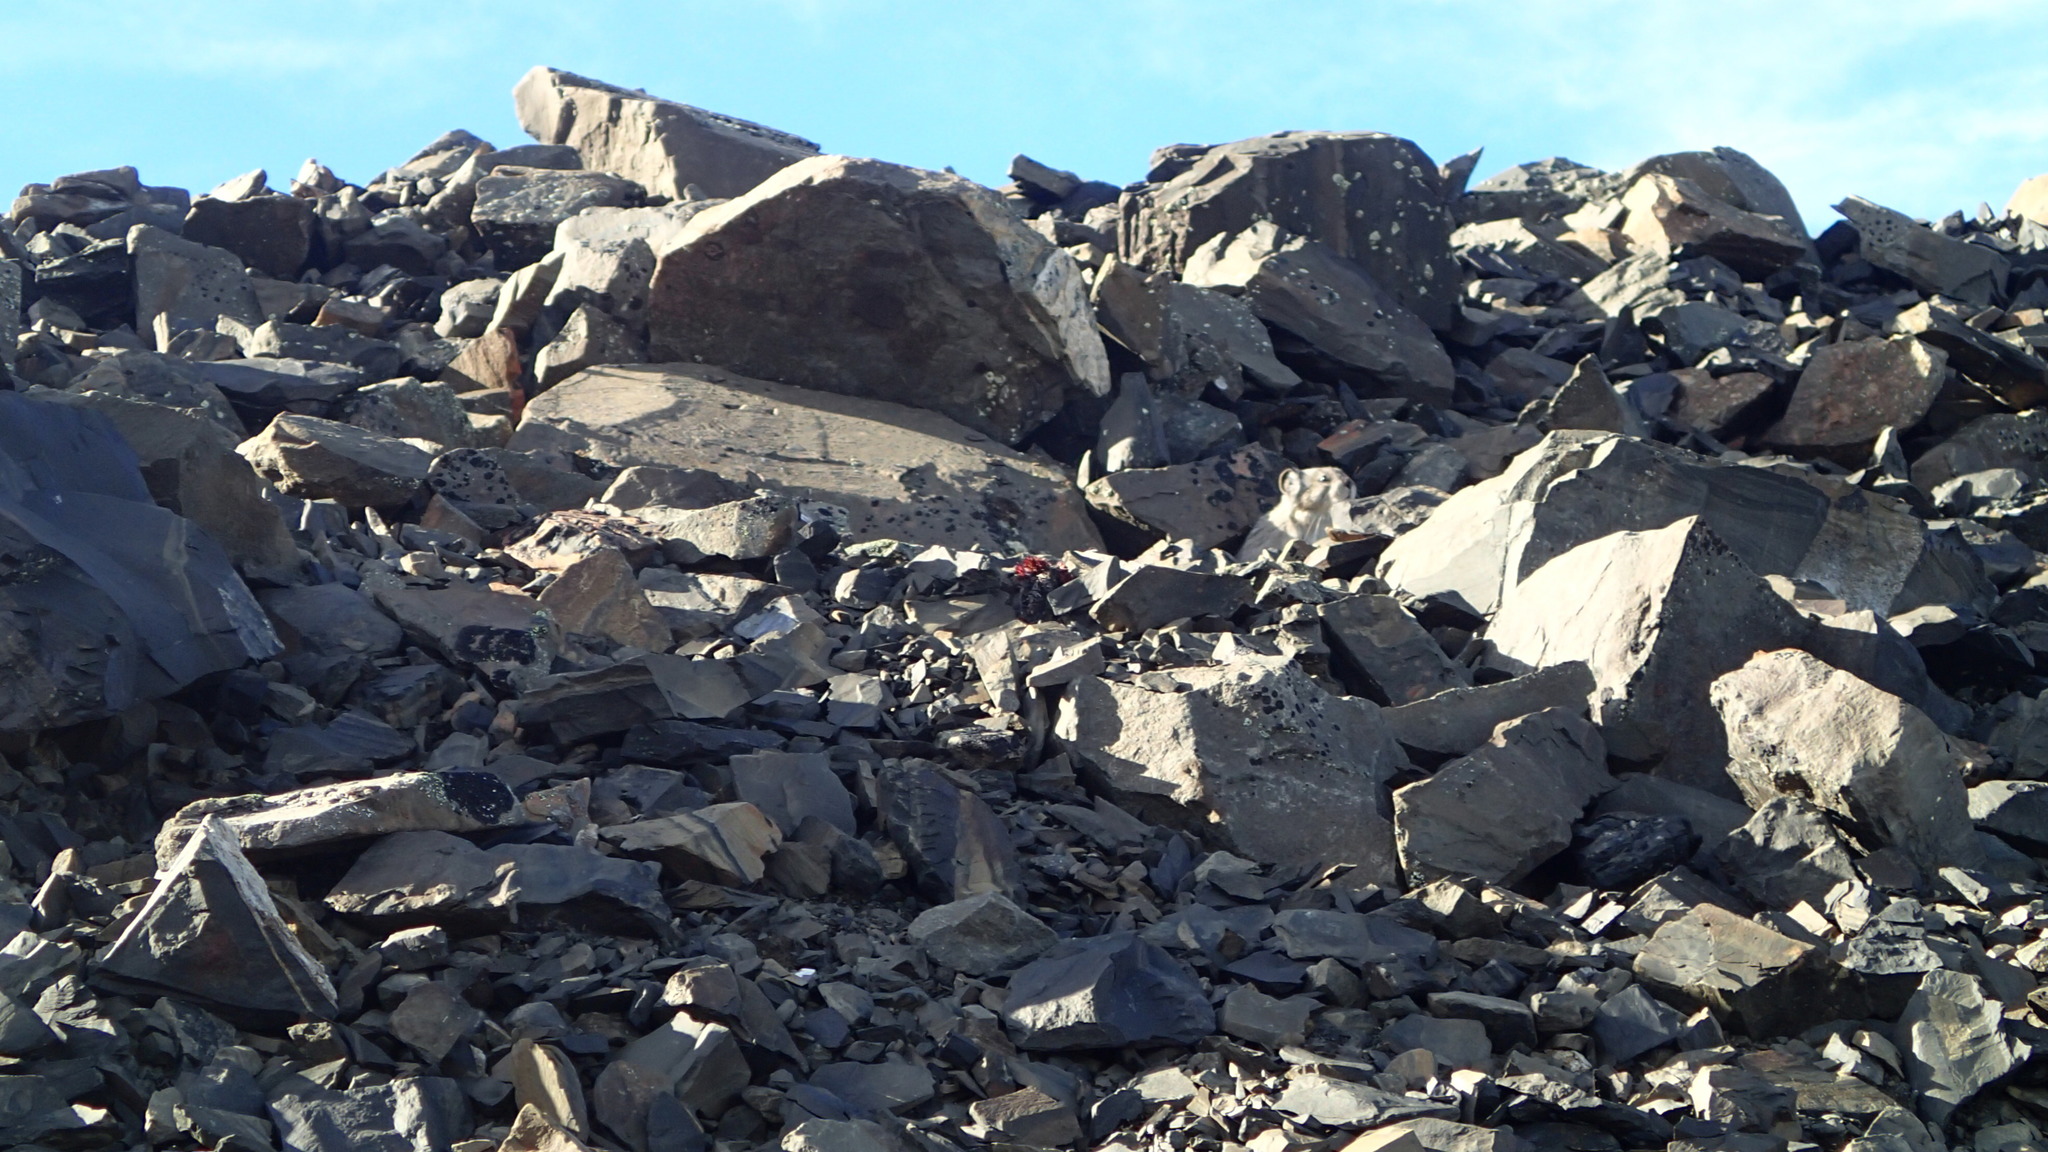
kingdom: Animalia
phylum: Chordata
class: Mammalia
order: Lagomorpha
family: Ochotonidae
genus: Ochotona
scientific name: Ochotona collaris
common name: Collared pika
